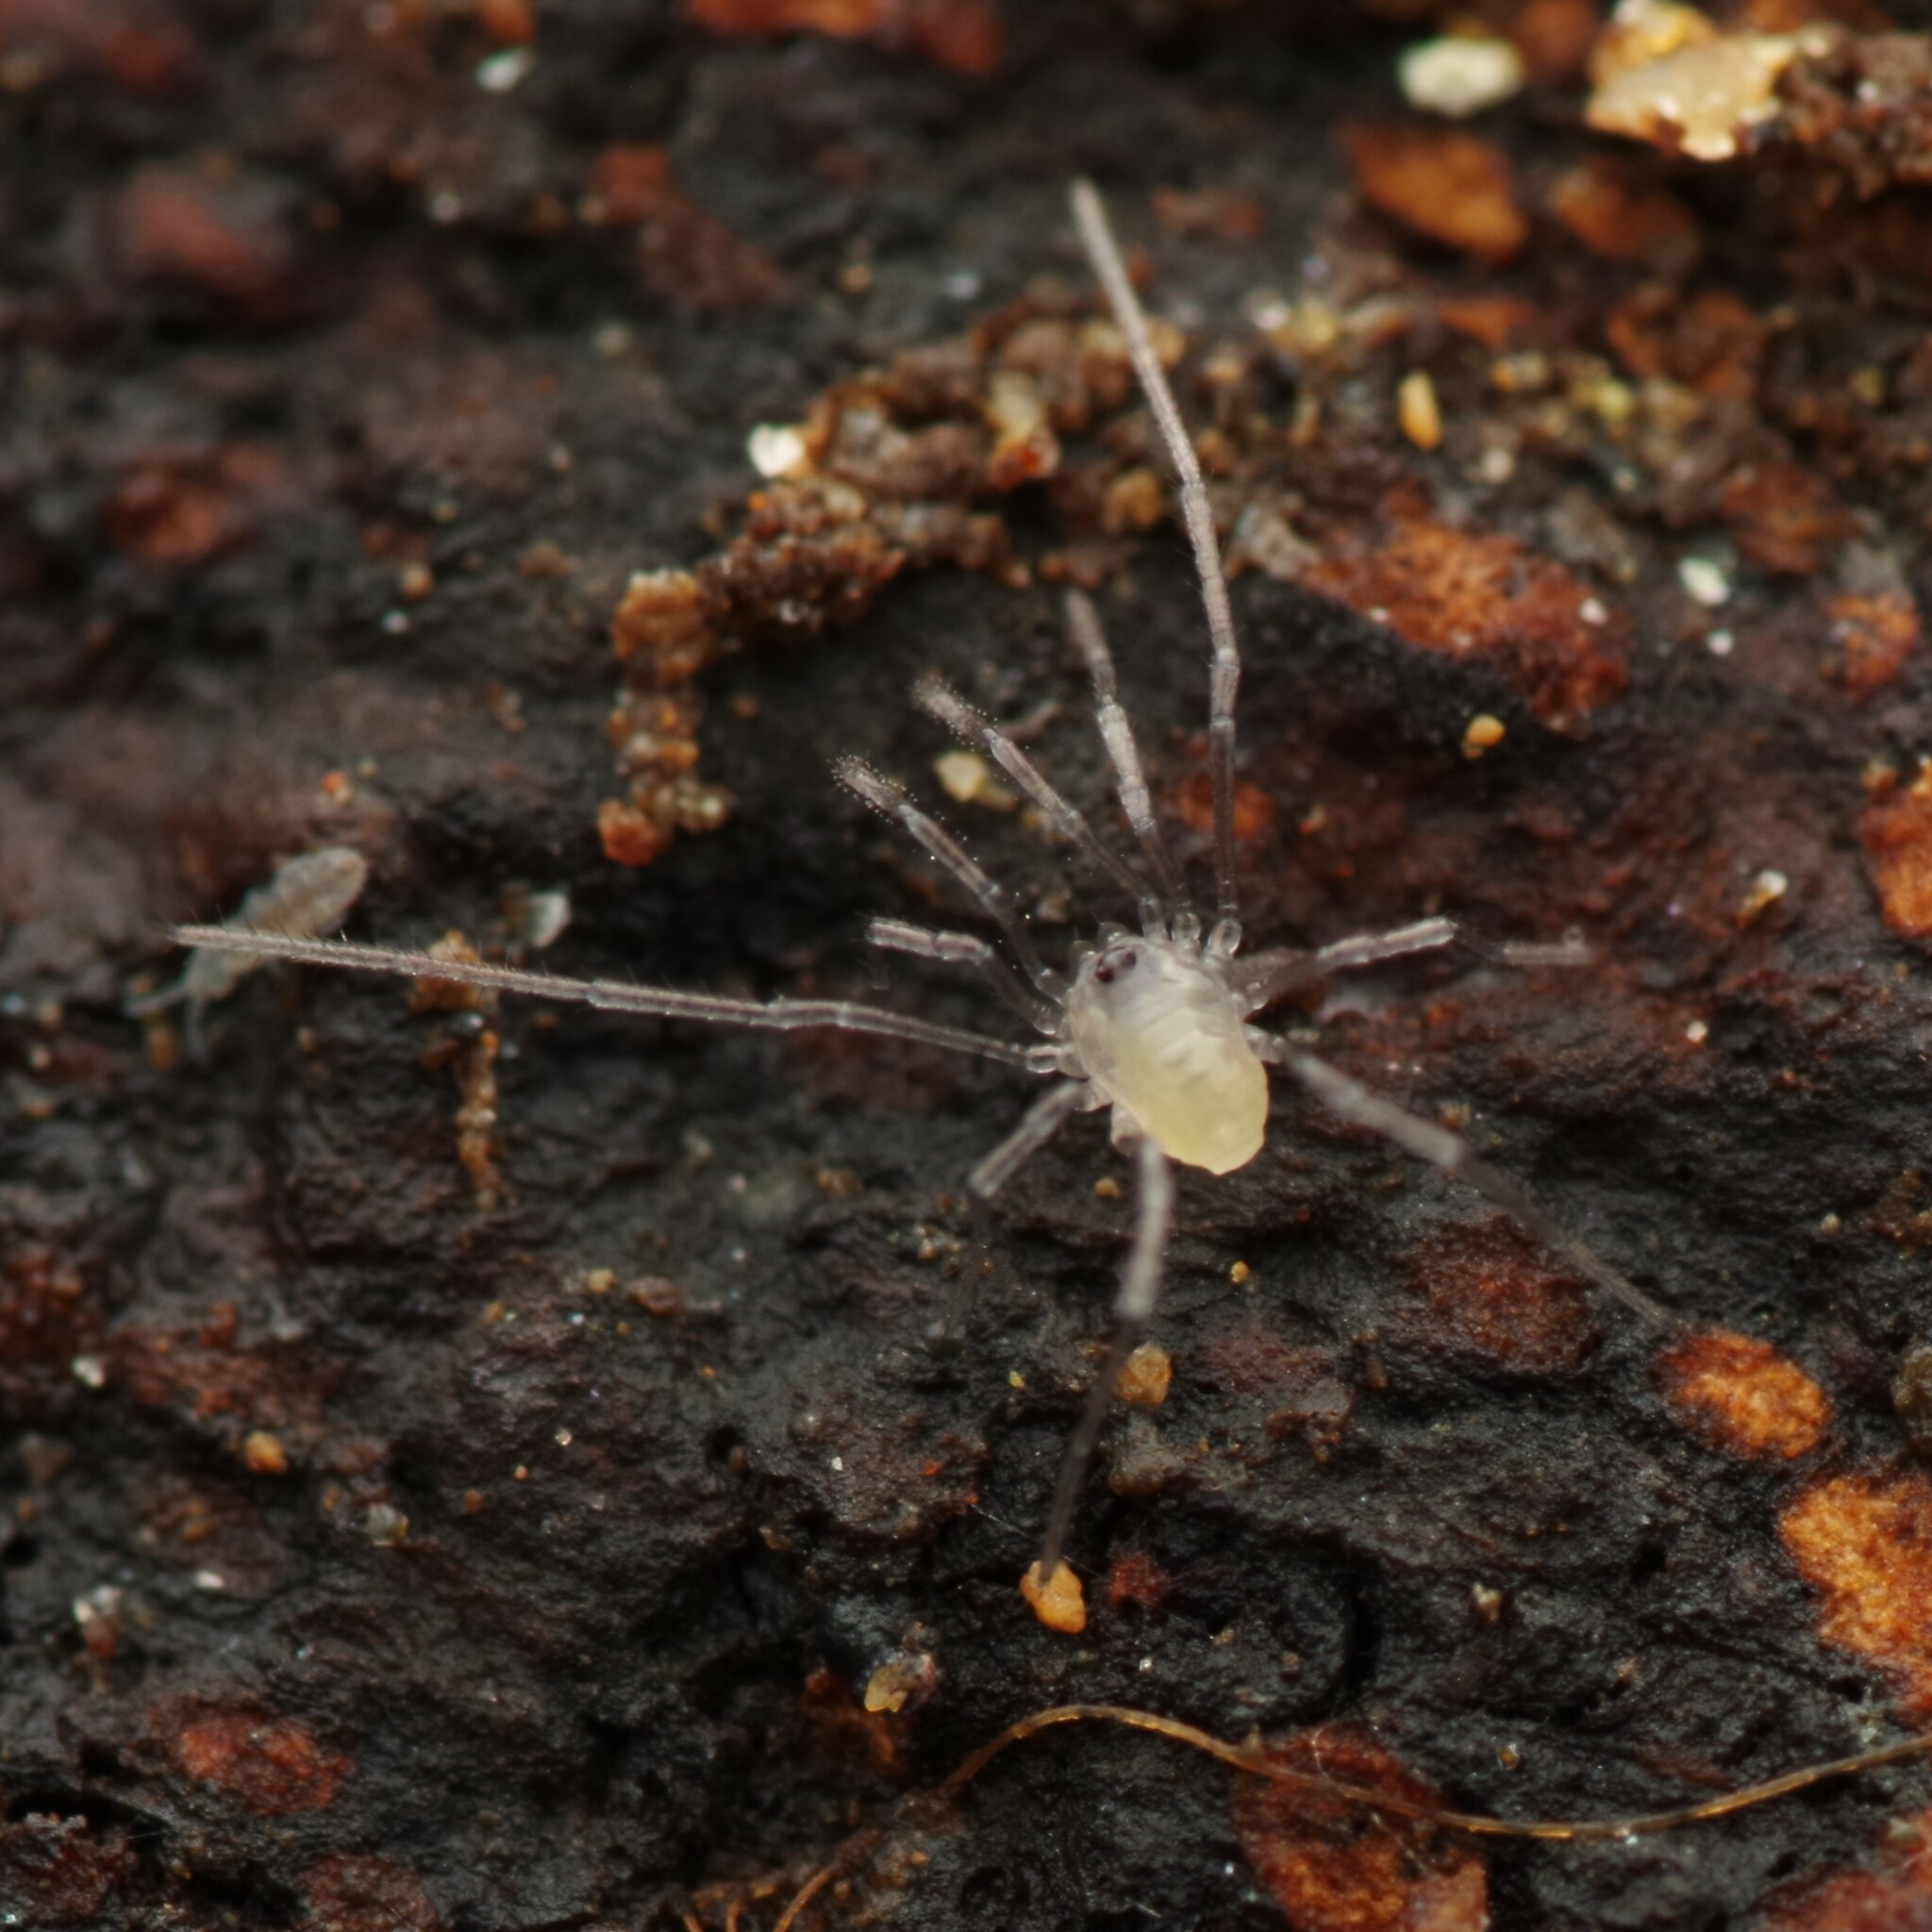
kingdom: Animalia
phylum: Arthropoda
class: Arachnida
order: Opiliones
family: Nemastomatidae
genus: Mitostoma
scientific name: Mitostoma chrysomelas
